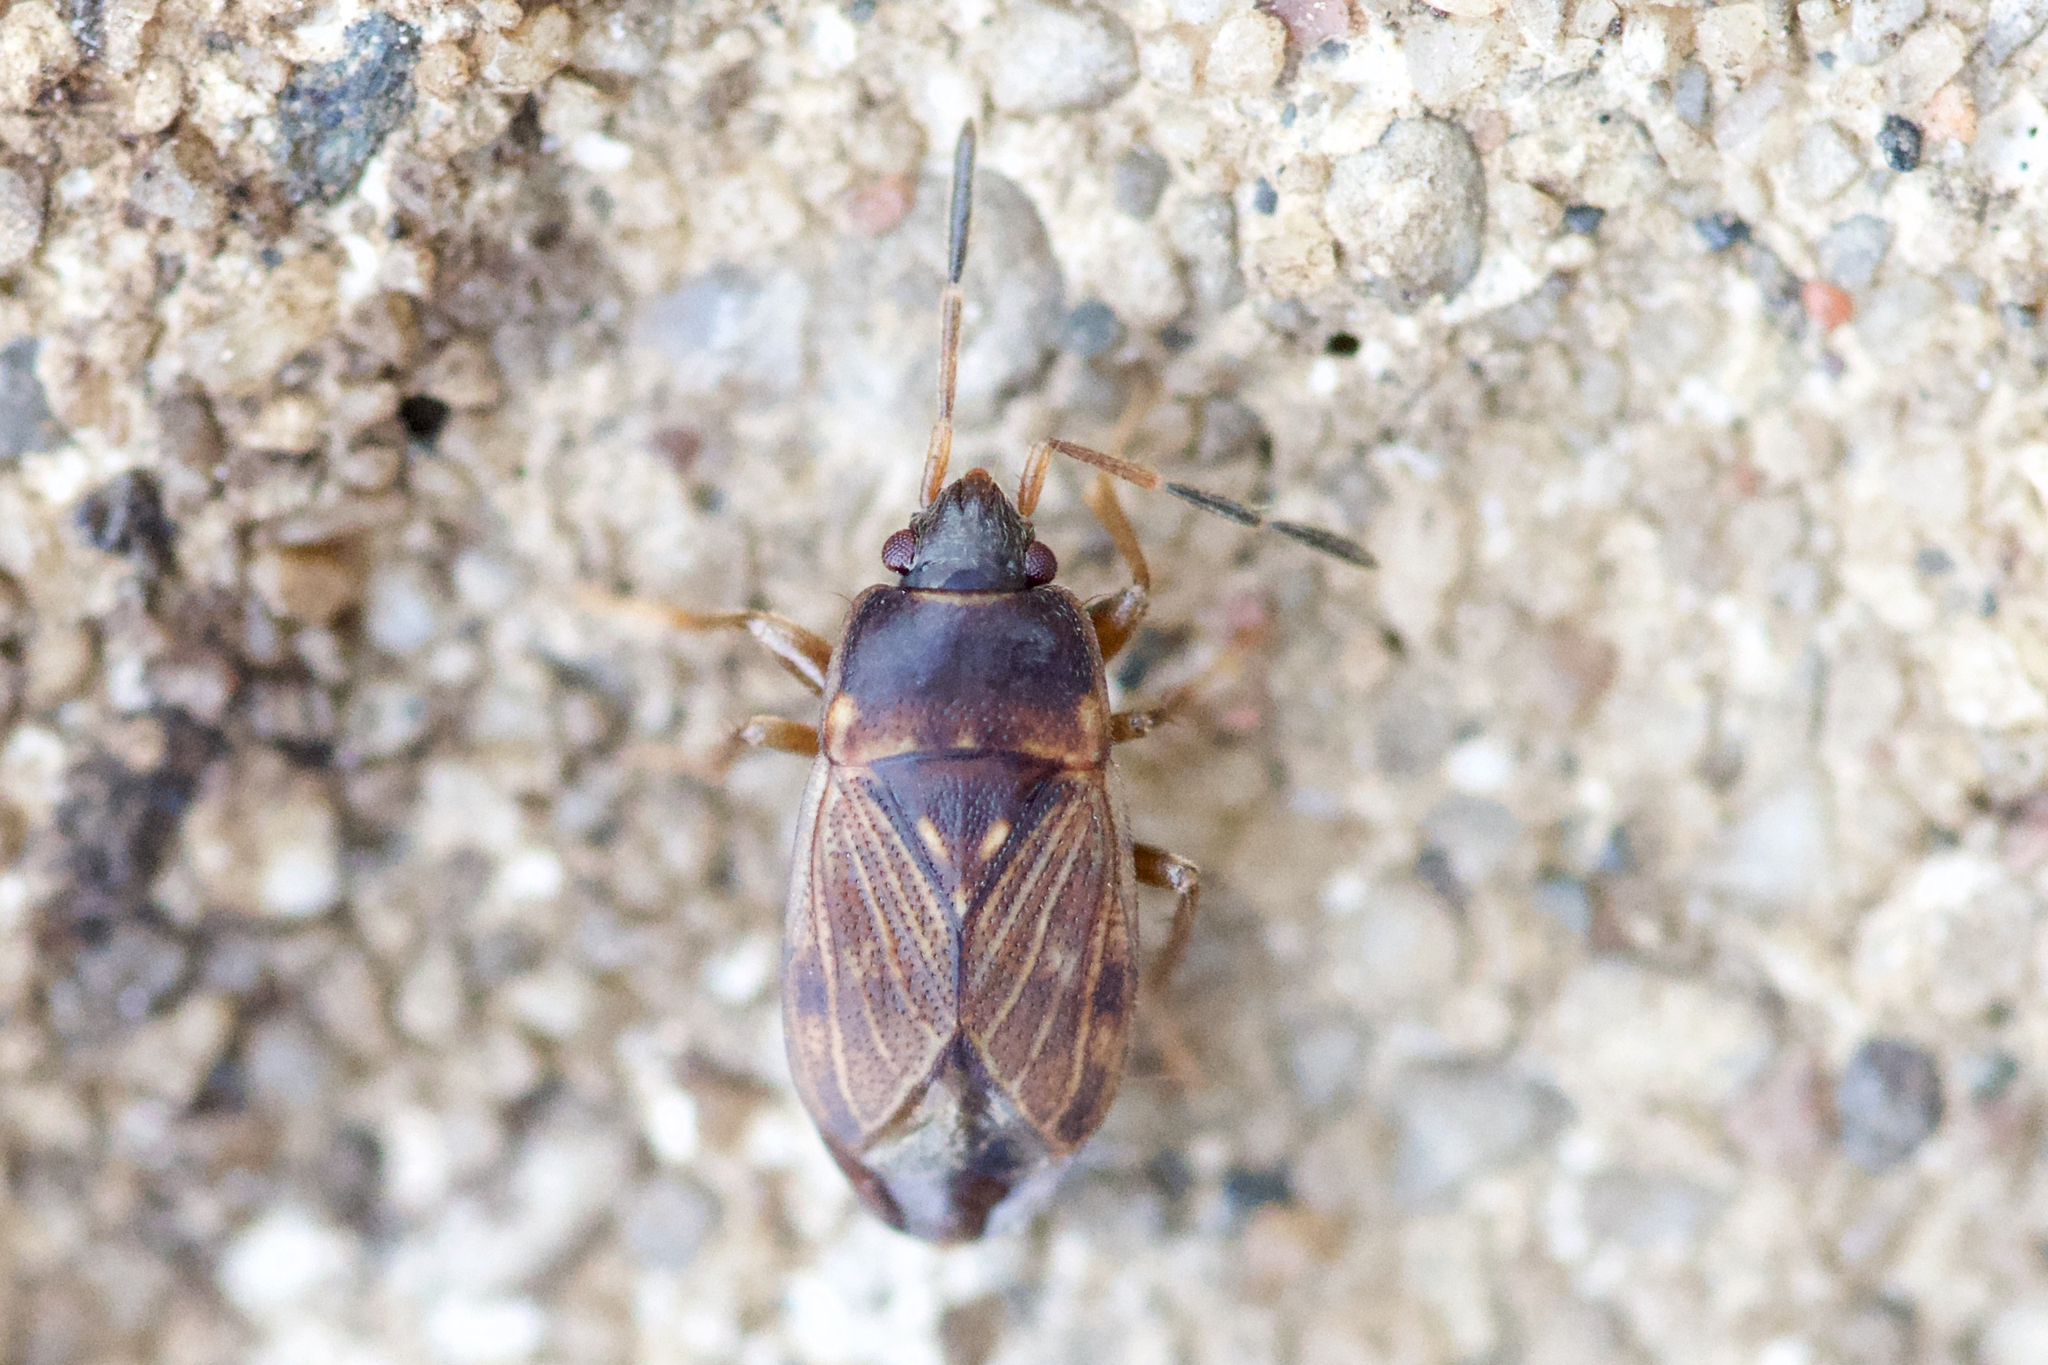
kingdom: Animalia
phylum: Arthropoda
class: Insecta
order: Hemiptera
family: Rhyparochromidae
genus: Cryphula
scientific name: Cryphula trimaculata
